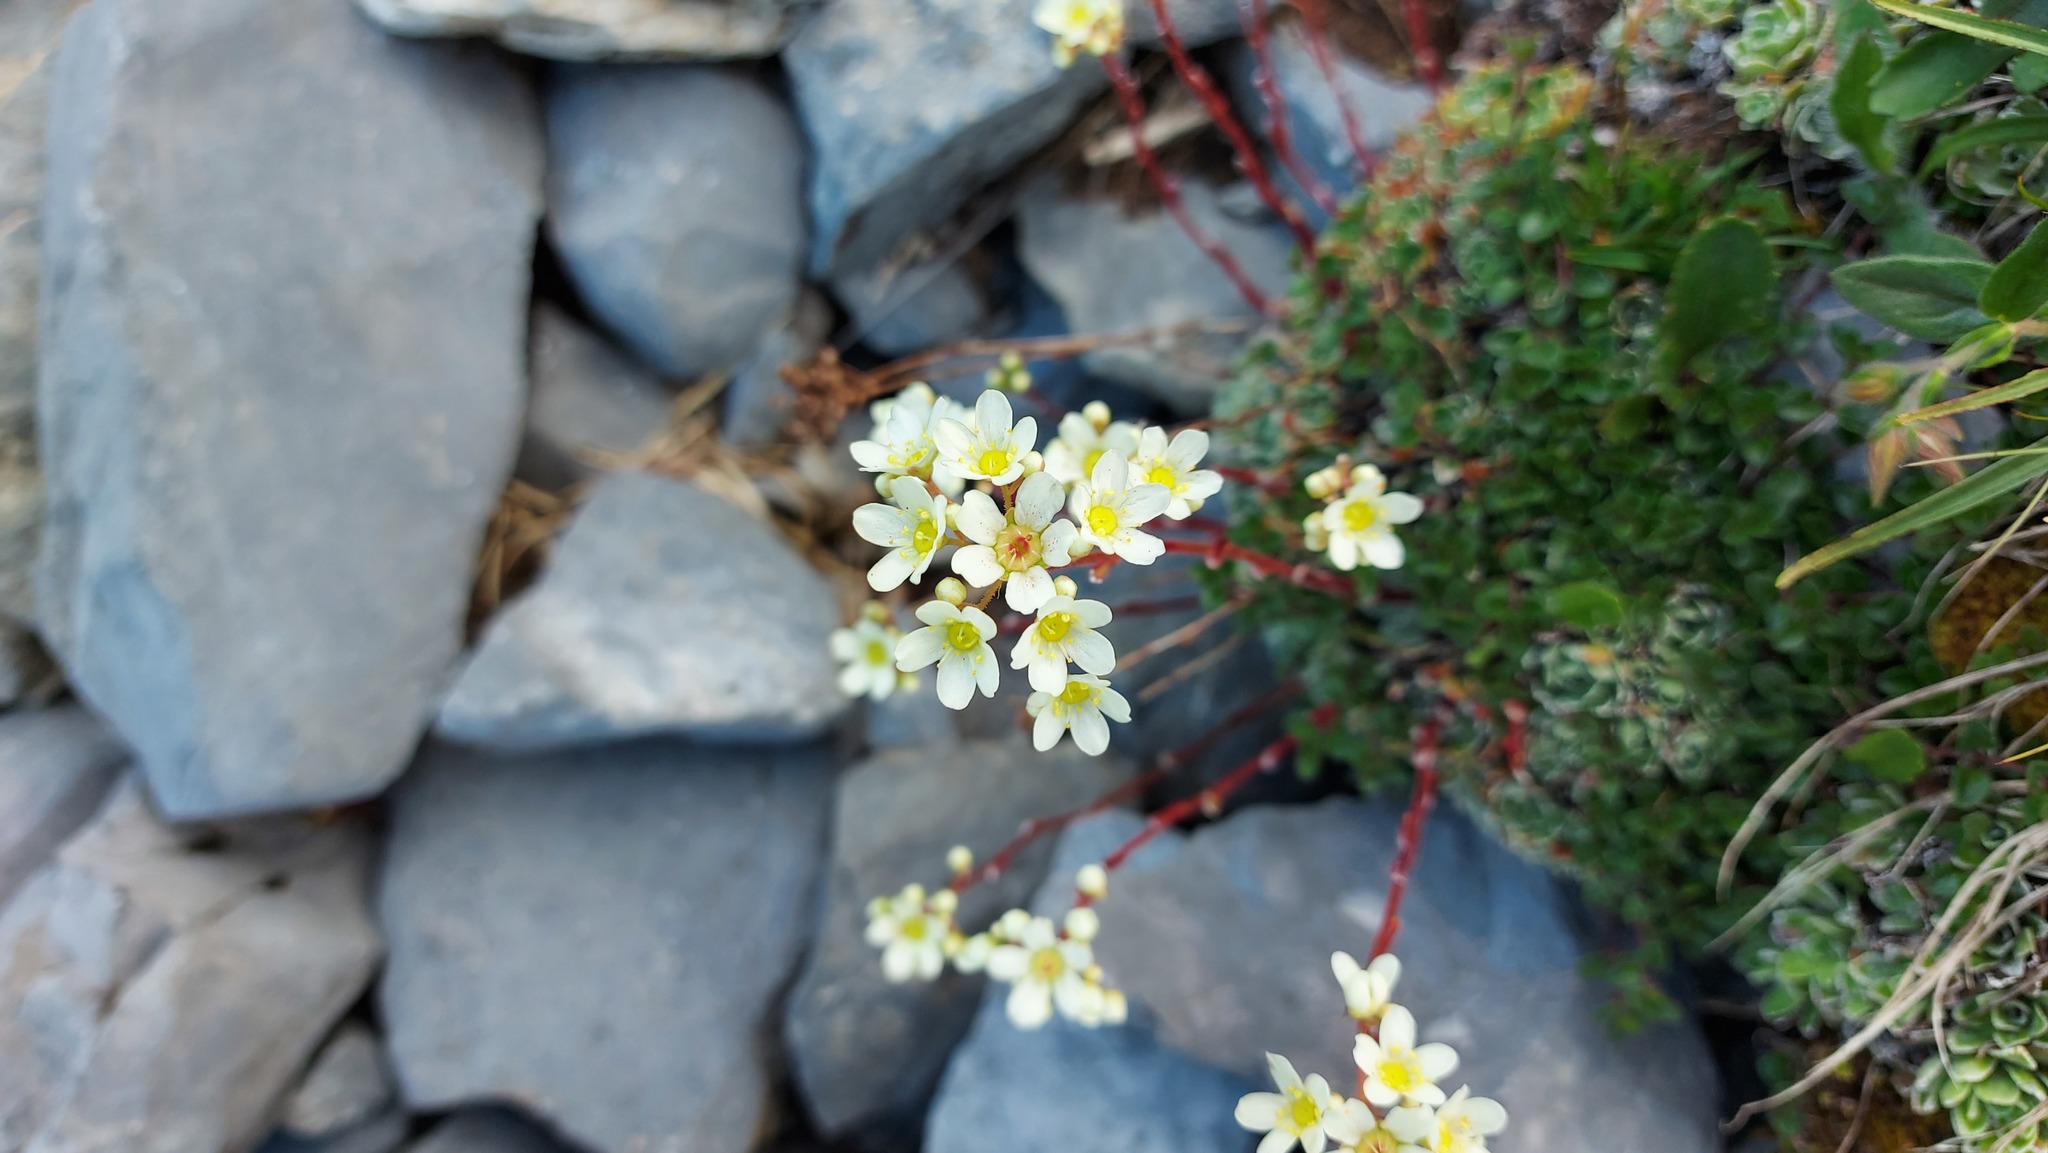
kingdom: Plantae
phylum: Tracheophyta
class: Magnoliopsida
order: Saxifragales
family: Saxifragaceae
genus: Saxifraga
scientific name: Saxifraga paniculata
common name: Livelong saxifrage
